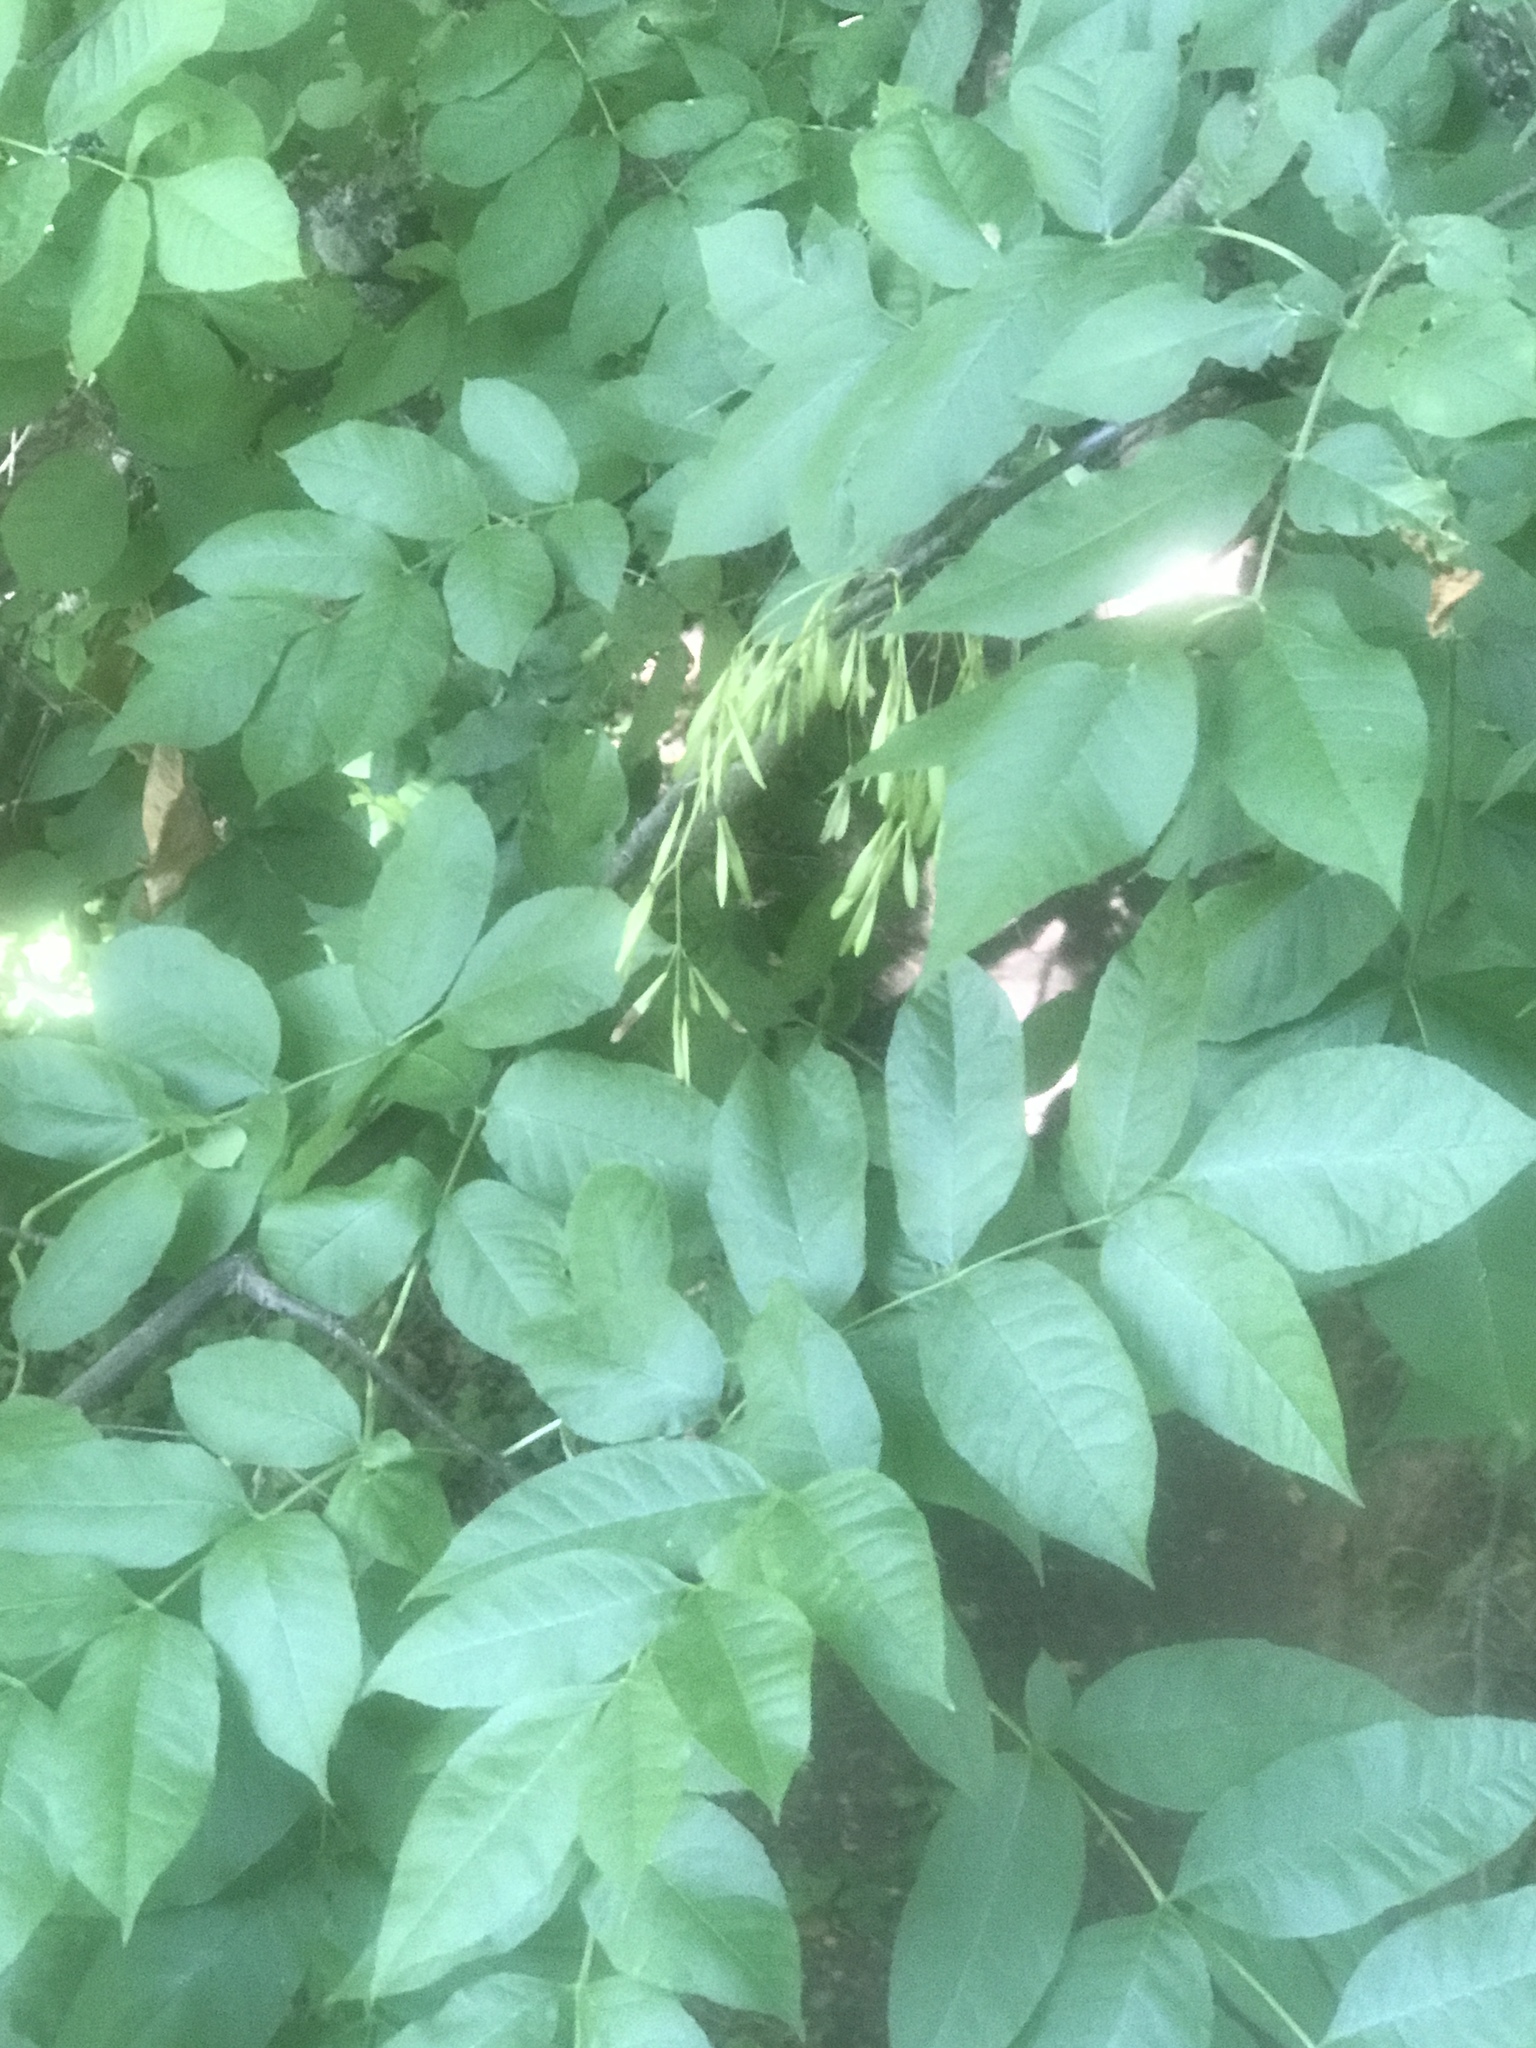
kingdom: Plantae
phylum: Tracheophyta
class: Magnoliopsida
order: Lamiales
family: Oleaceae
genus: Fraxinus
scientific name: Fraxinus latifolia
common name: Oregon ash
